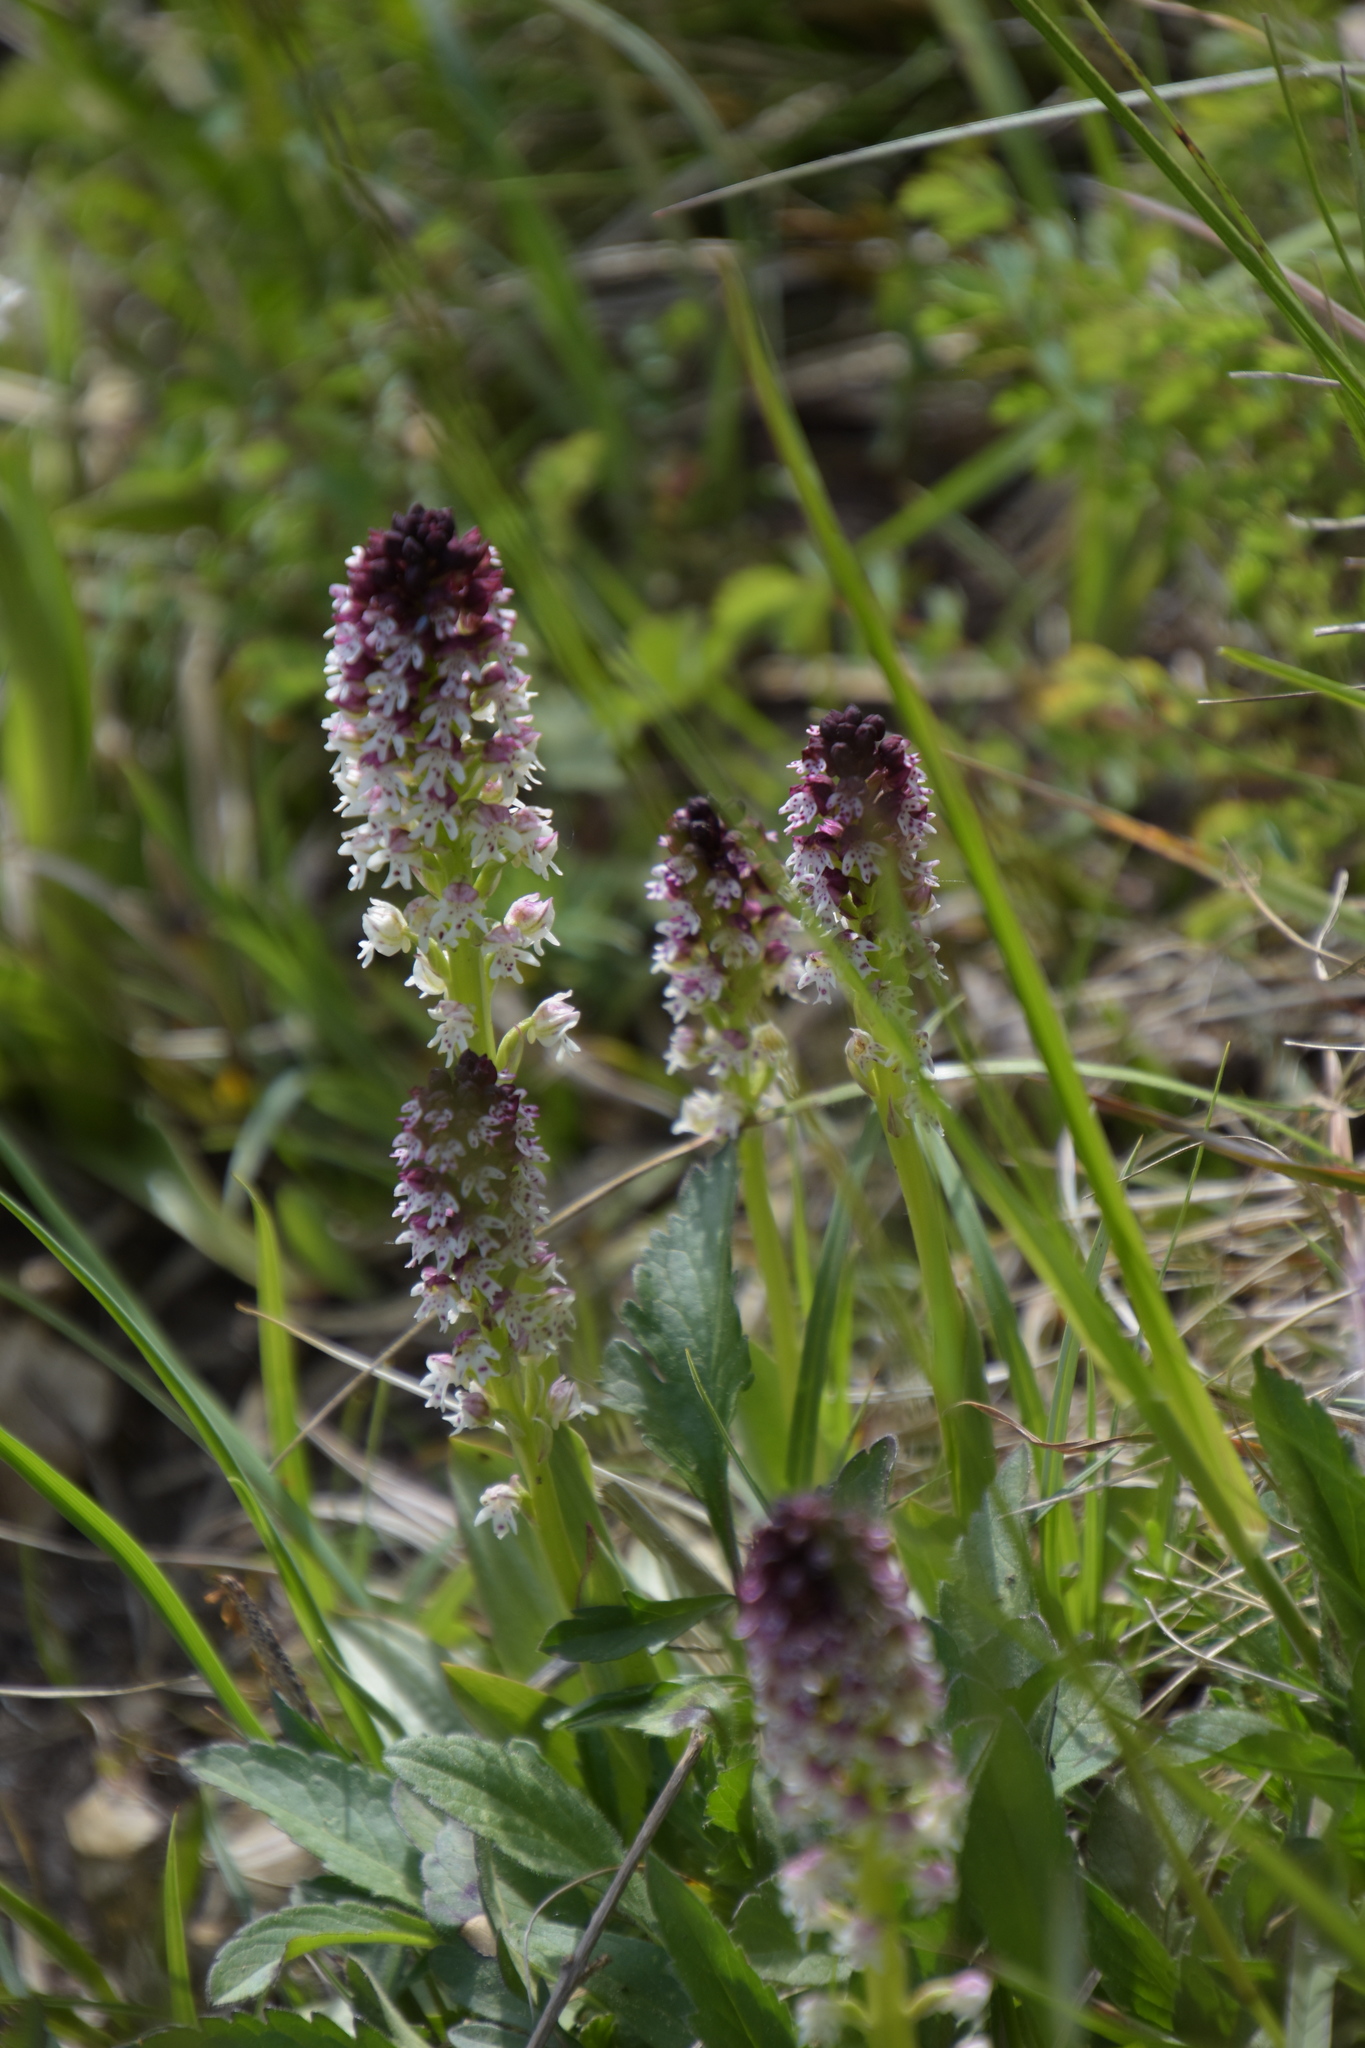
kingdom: Plantae
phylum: Tracheophyta
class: Liliopsida
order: Asparagales
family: Orchidaceae
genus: Neotinea
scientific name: Neotinea ustulata
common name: Burnt orchid
